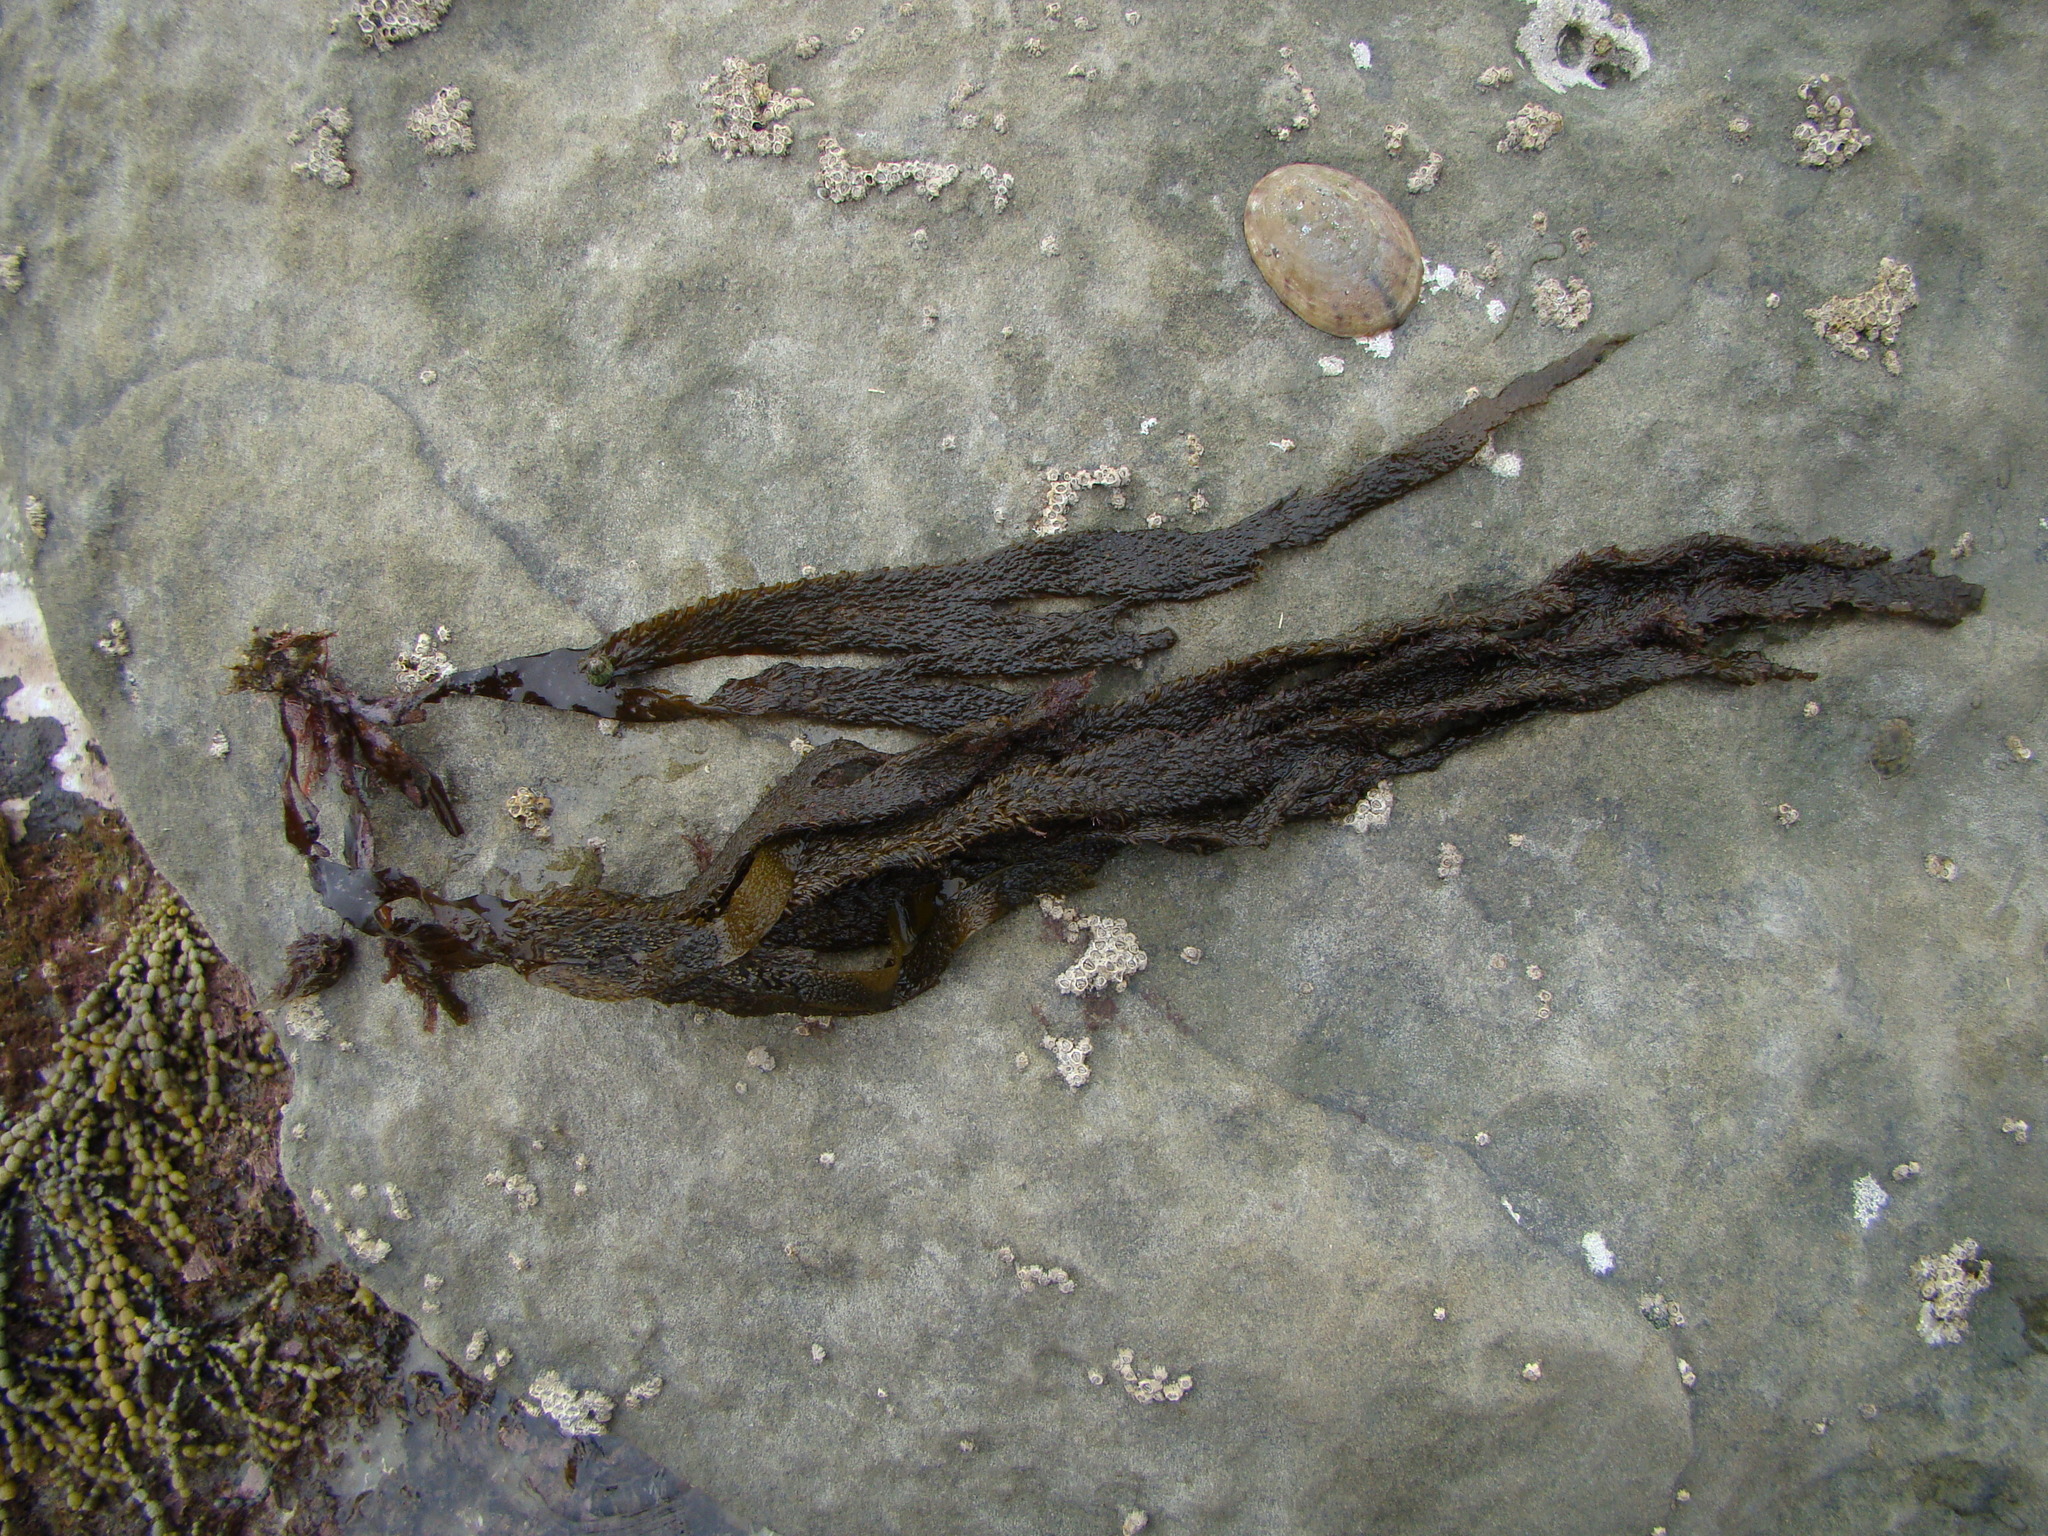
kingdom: Chromista
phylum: Ochrophyta
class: Phaeophyceae
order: Dictyotales
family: Dictyotaceae
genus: Dictyota
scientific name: Dictyota kunthii
